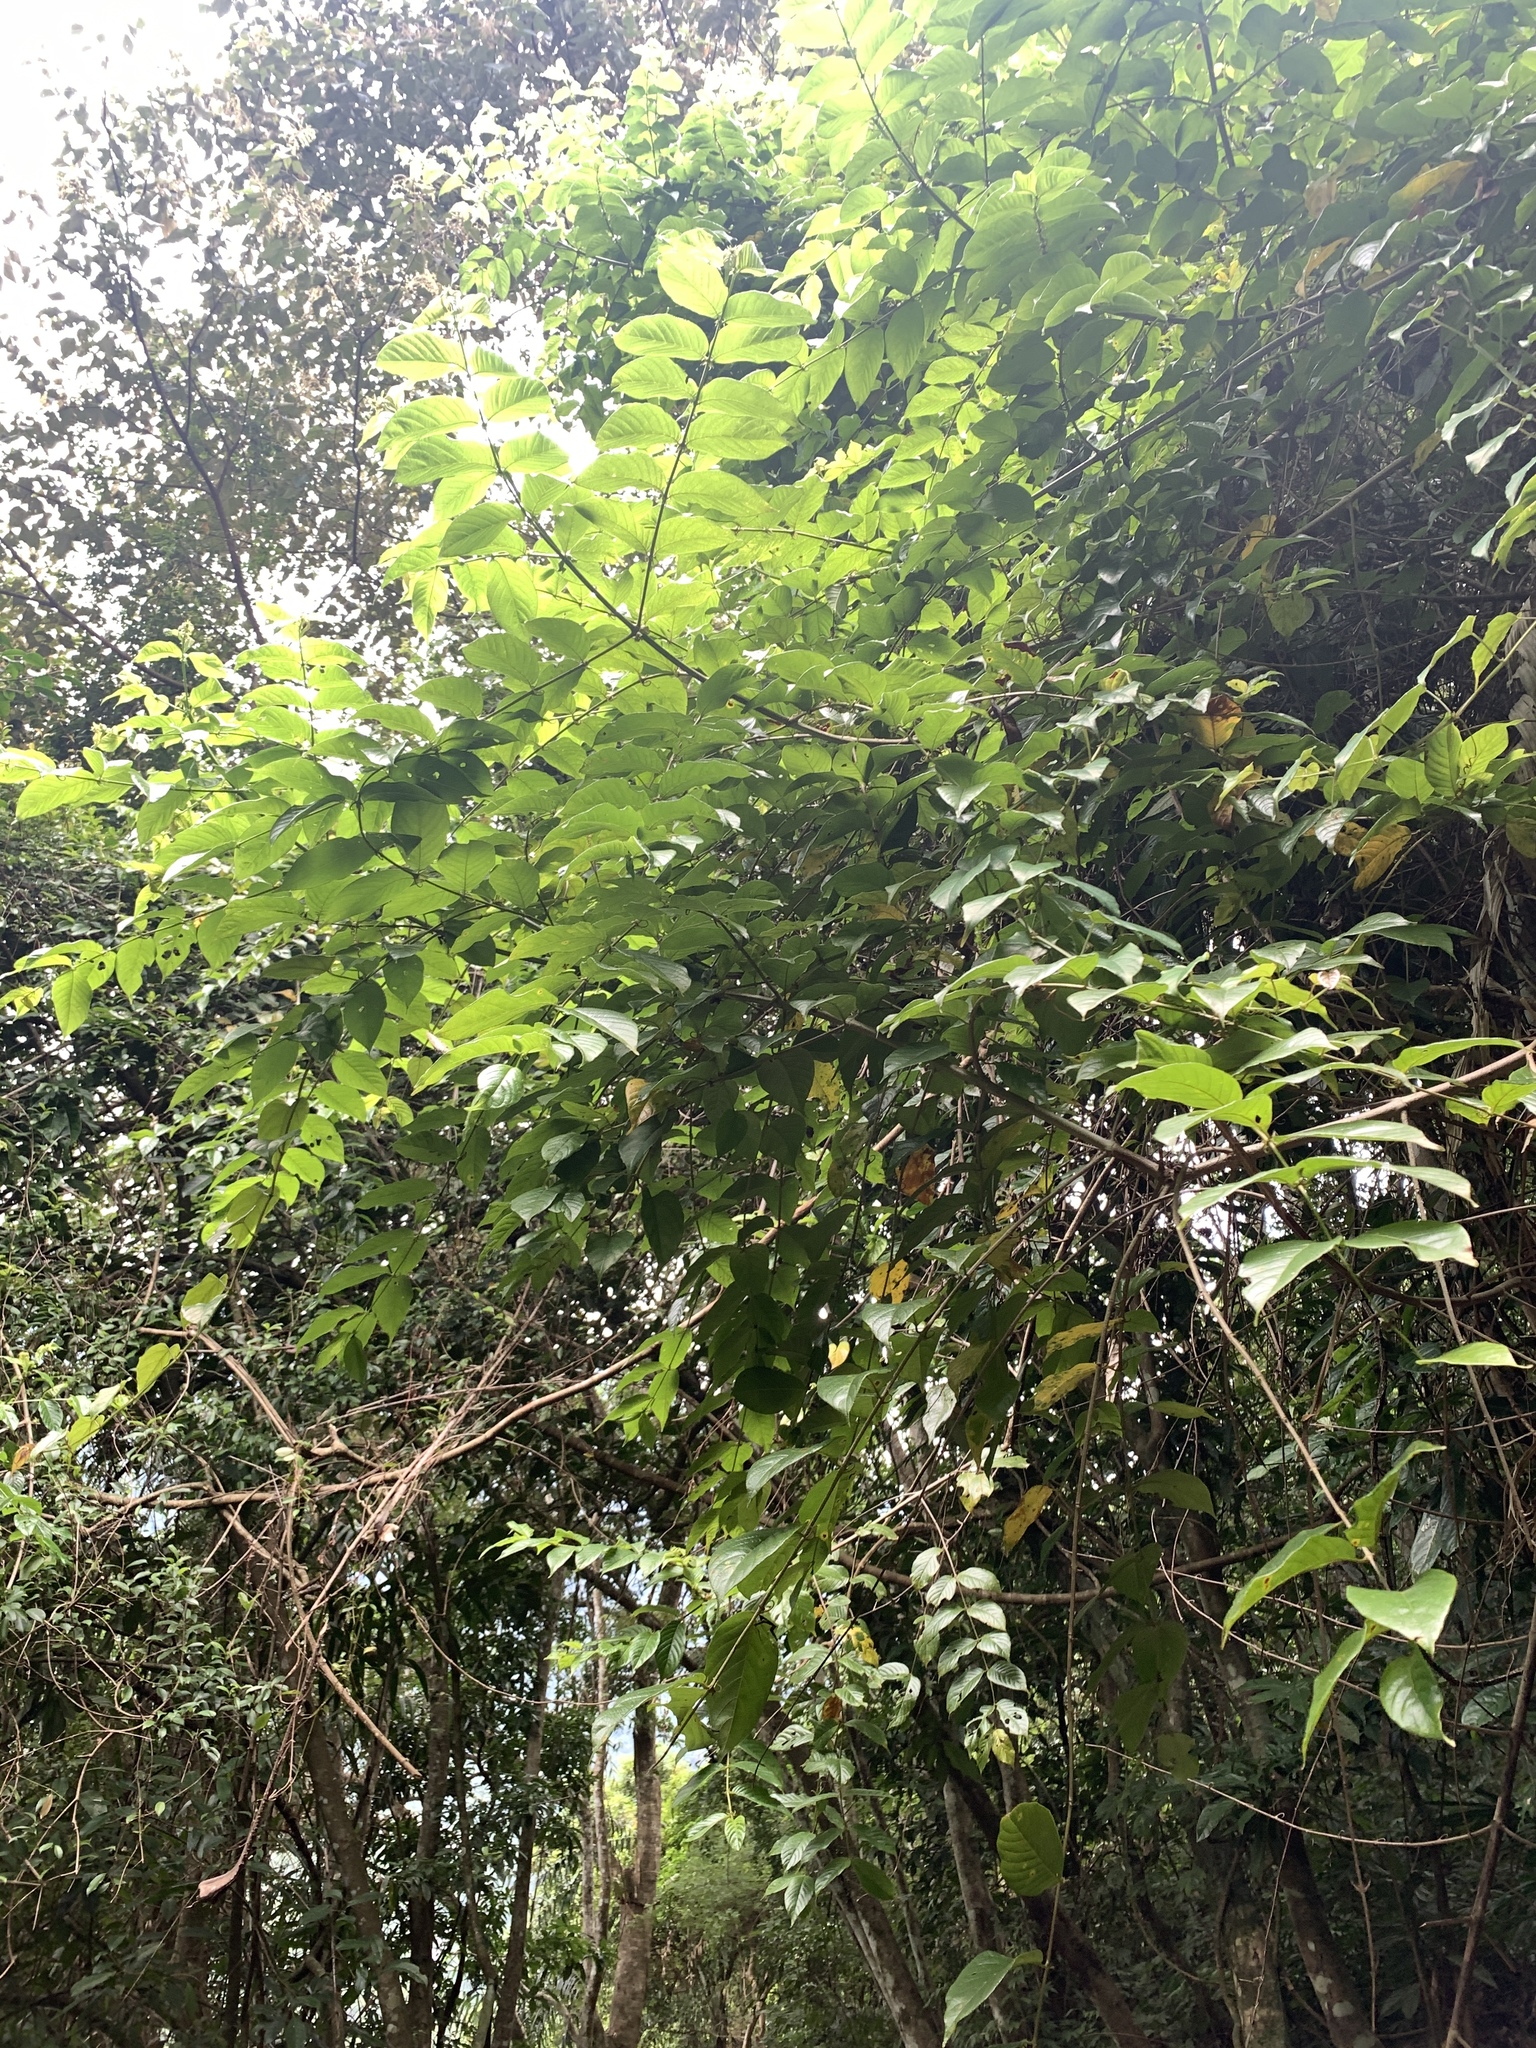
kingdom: Plantae
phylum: Tracheophyta
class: Magnoliopsida
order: Gentianales
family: Rubiaceae
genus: Uncaria
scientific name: Uncaria hirsuta
